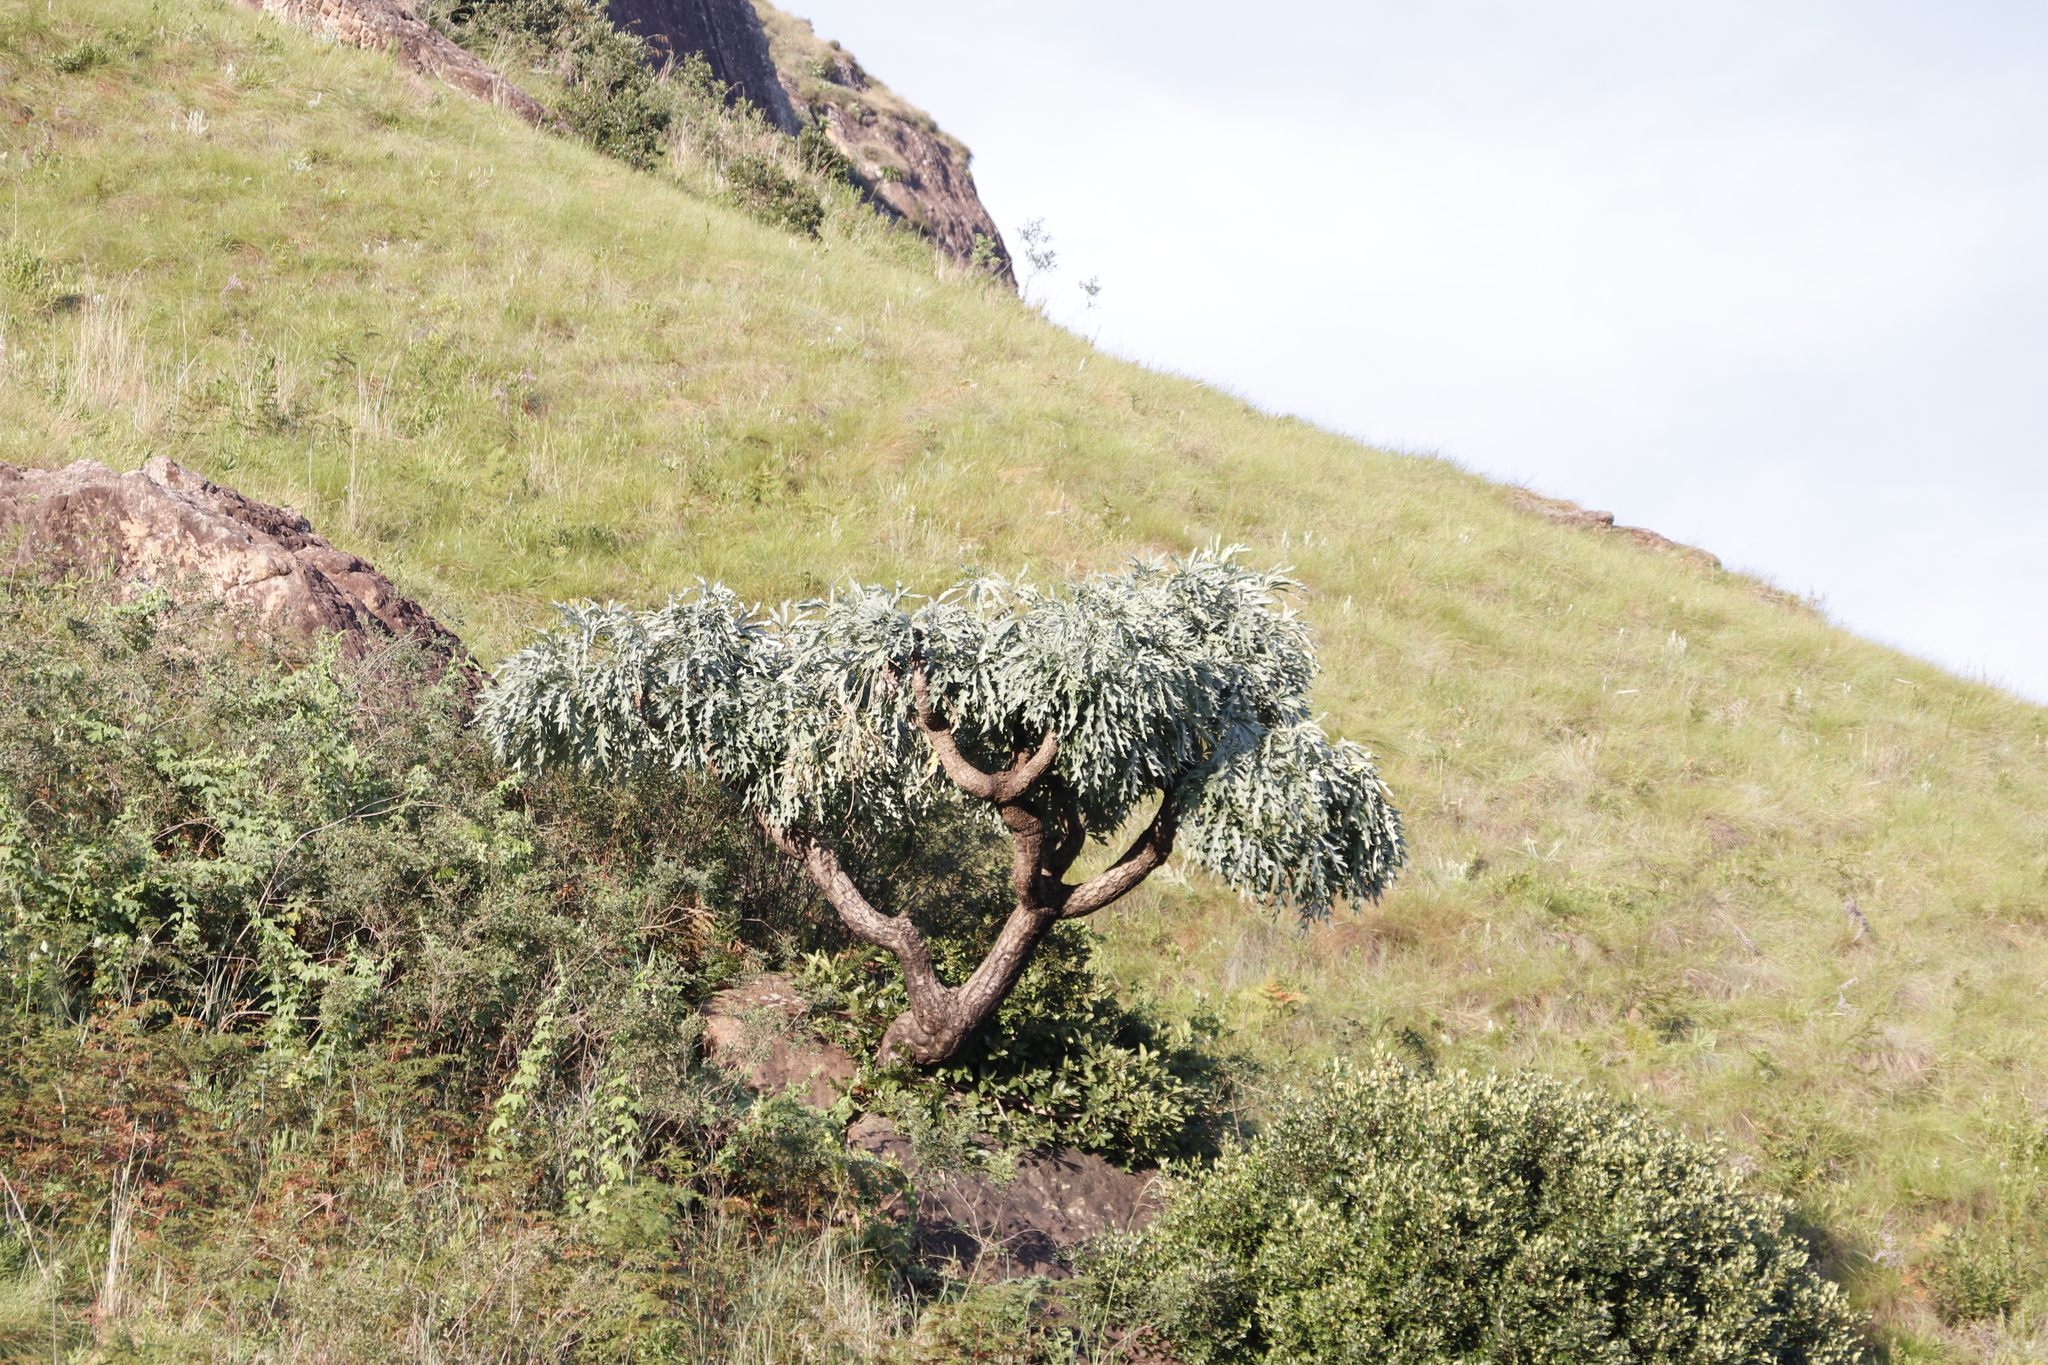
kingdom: Plantae
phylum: Tracheophyta
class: Magnoliopsida
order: Apiales
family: Araliaceae
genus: Cussonia
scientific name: Cussonia paniculata
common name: Cabbagetree
